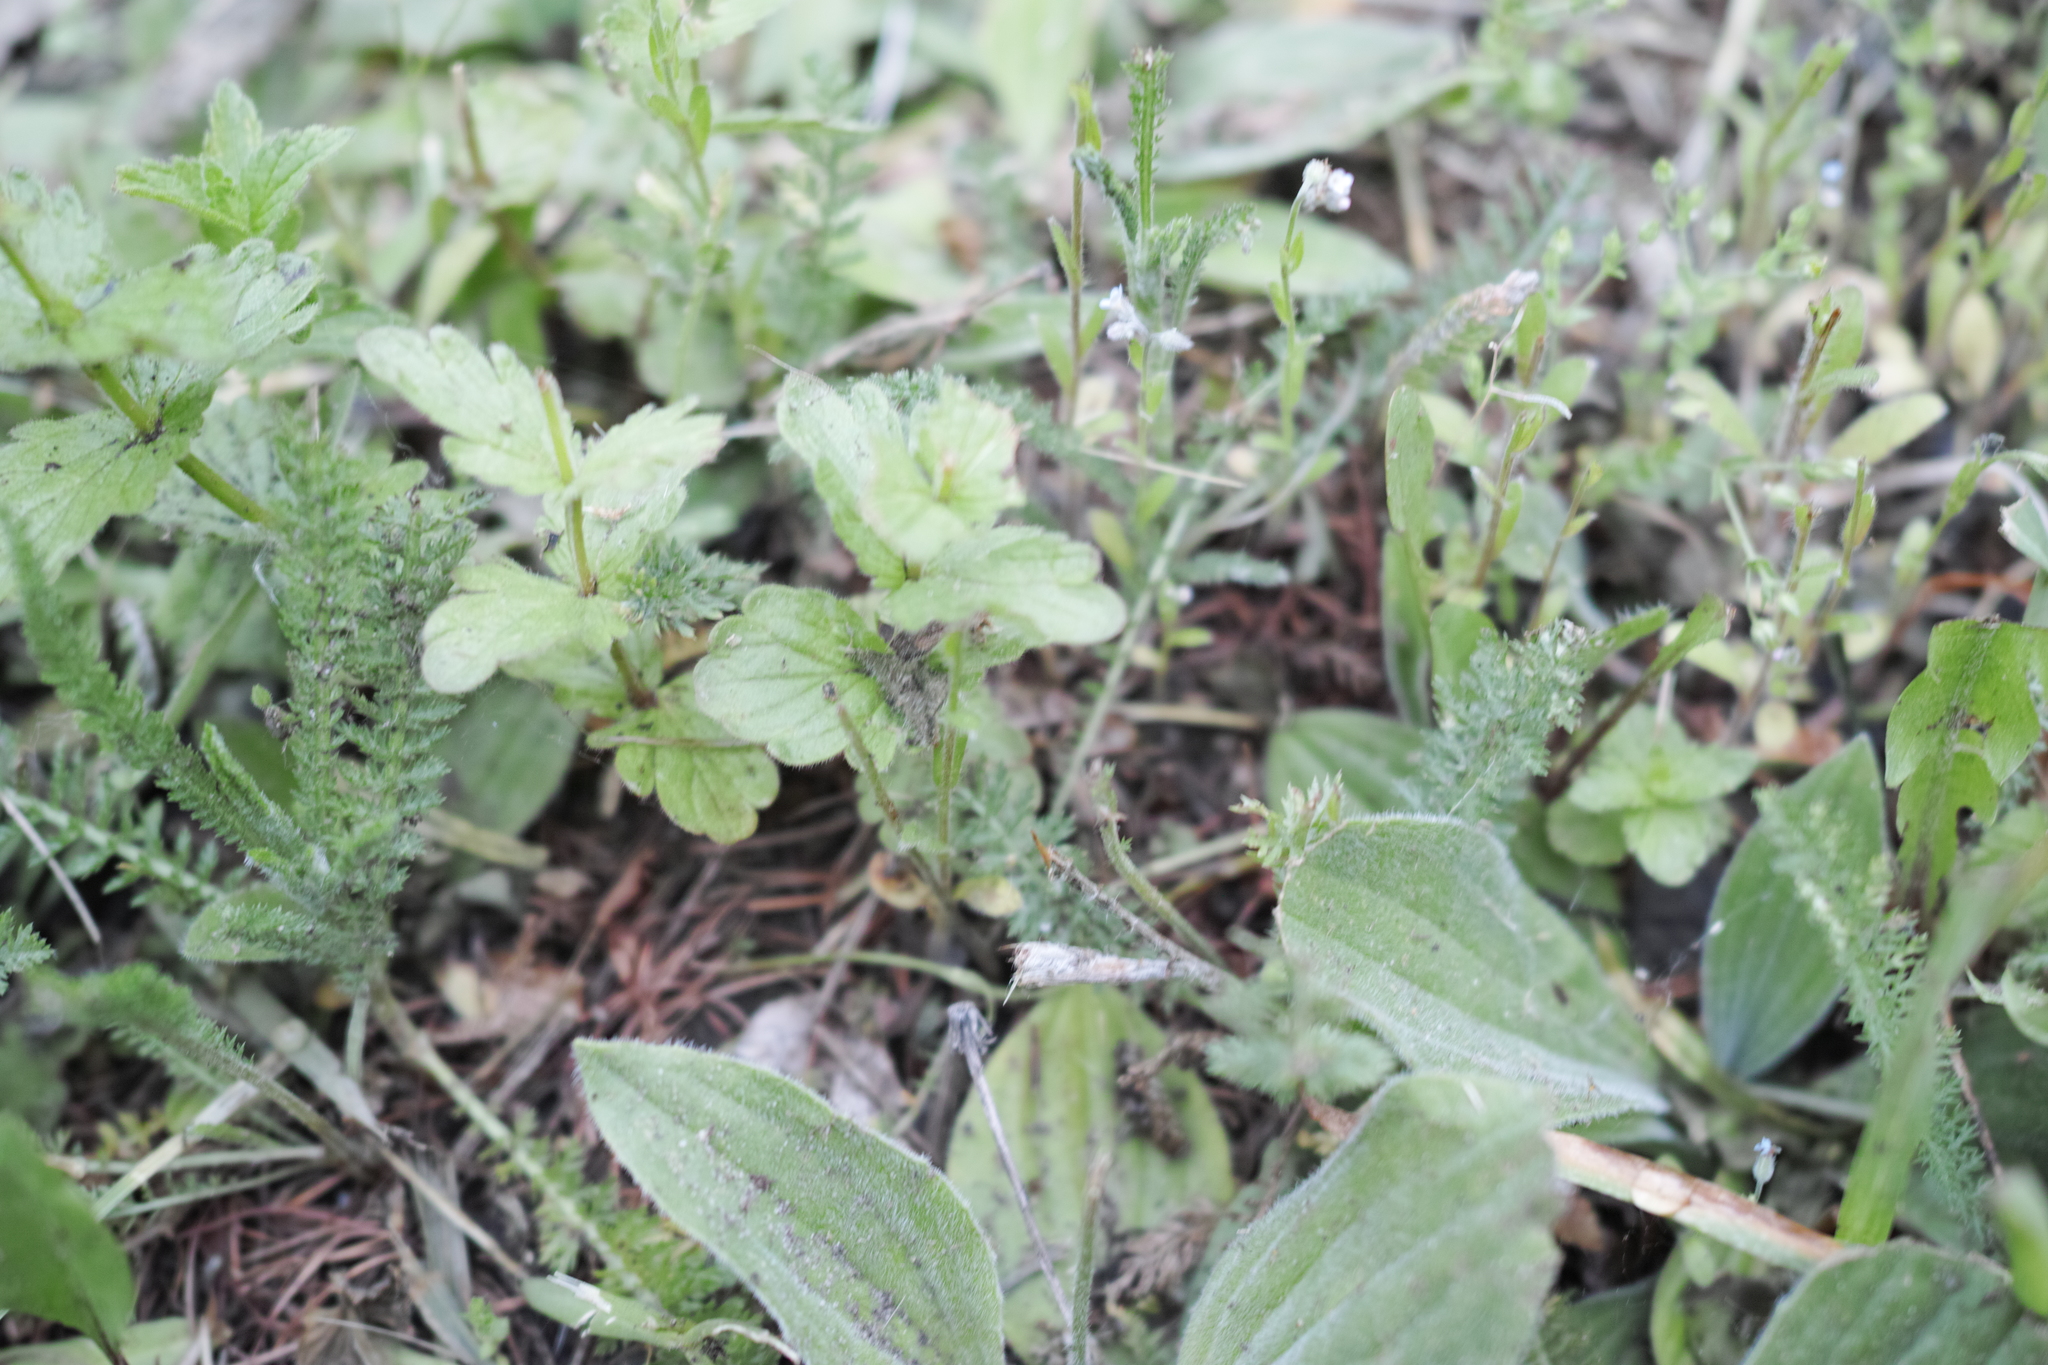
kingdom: Plantae
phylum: Tracheophyta
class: Magnoliopsida
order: Lamiales
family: Plantaginaceae
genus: Veronica
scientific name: Veronica chamaedrys
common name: Germander speedwell
